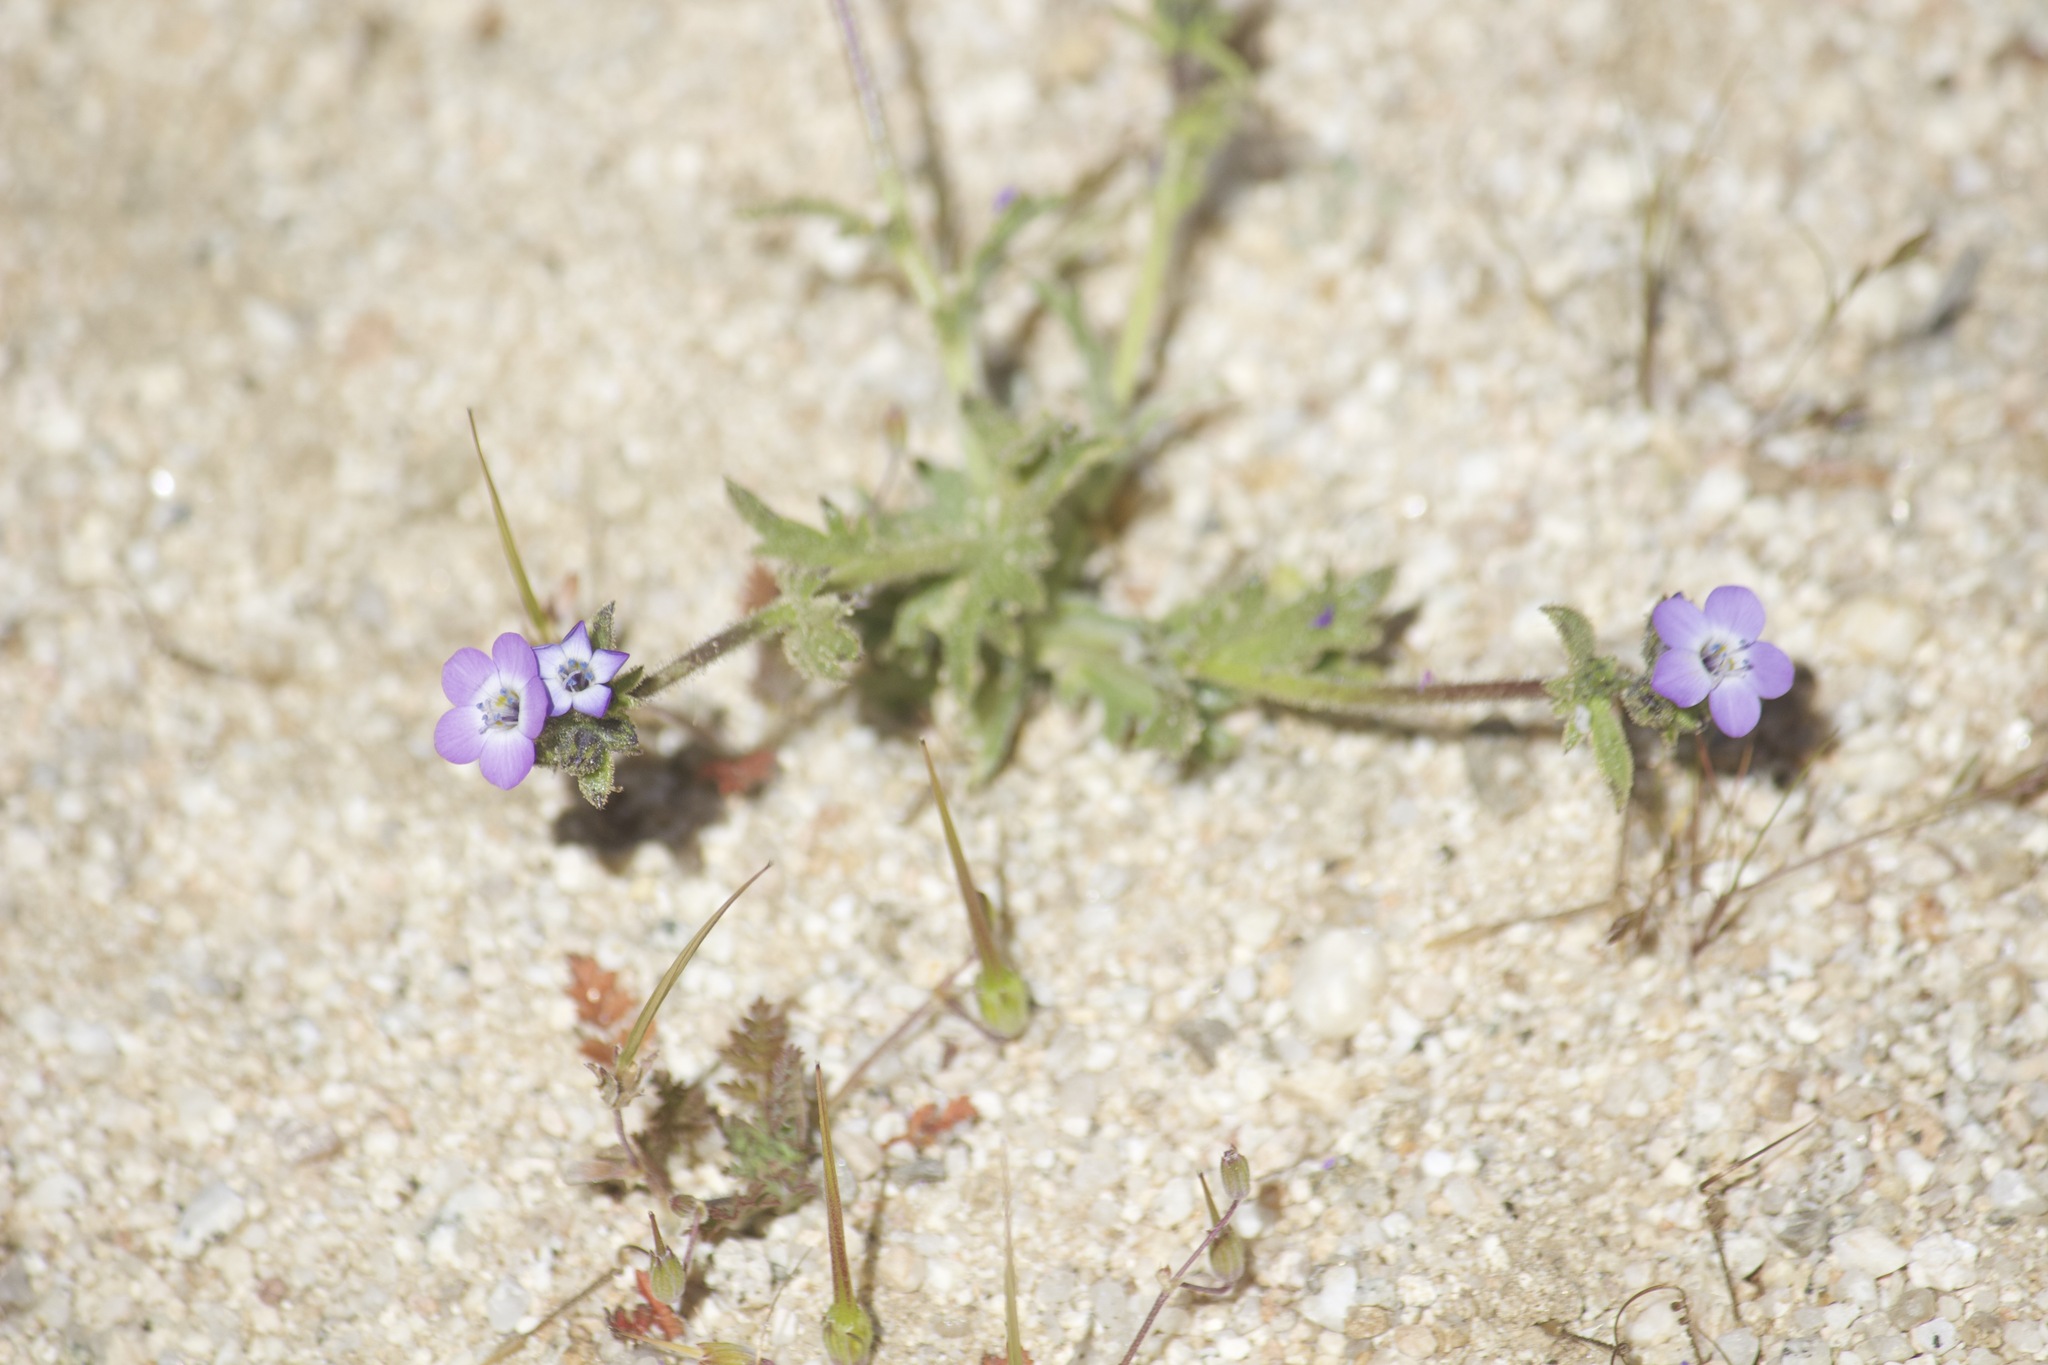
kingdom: Plantae
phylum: Tracheophyta
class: Magnoliopsida
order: Ericales
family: Polemoniaceae
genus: Gilia
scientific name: Gilia brecciarum
